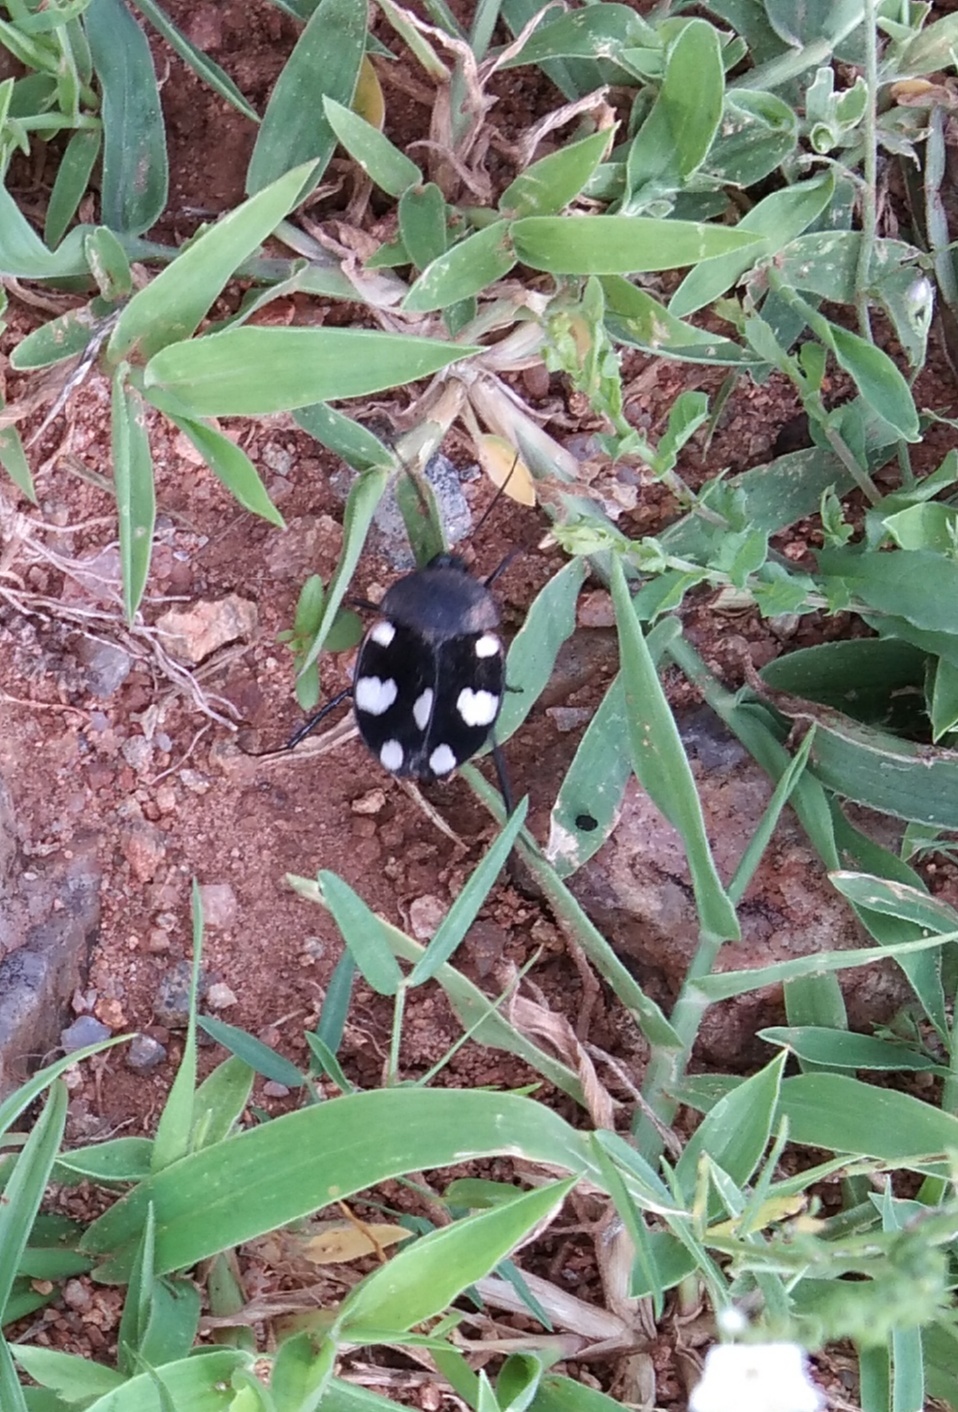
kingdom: Animalia
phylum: Arthropoda
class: Insecta
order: Blattodea
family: Corydiidae
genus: Therea
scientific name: Therea petiveriana
